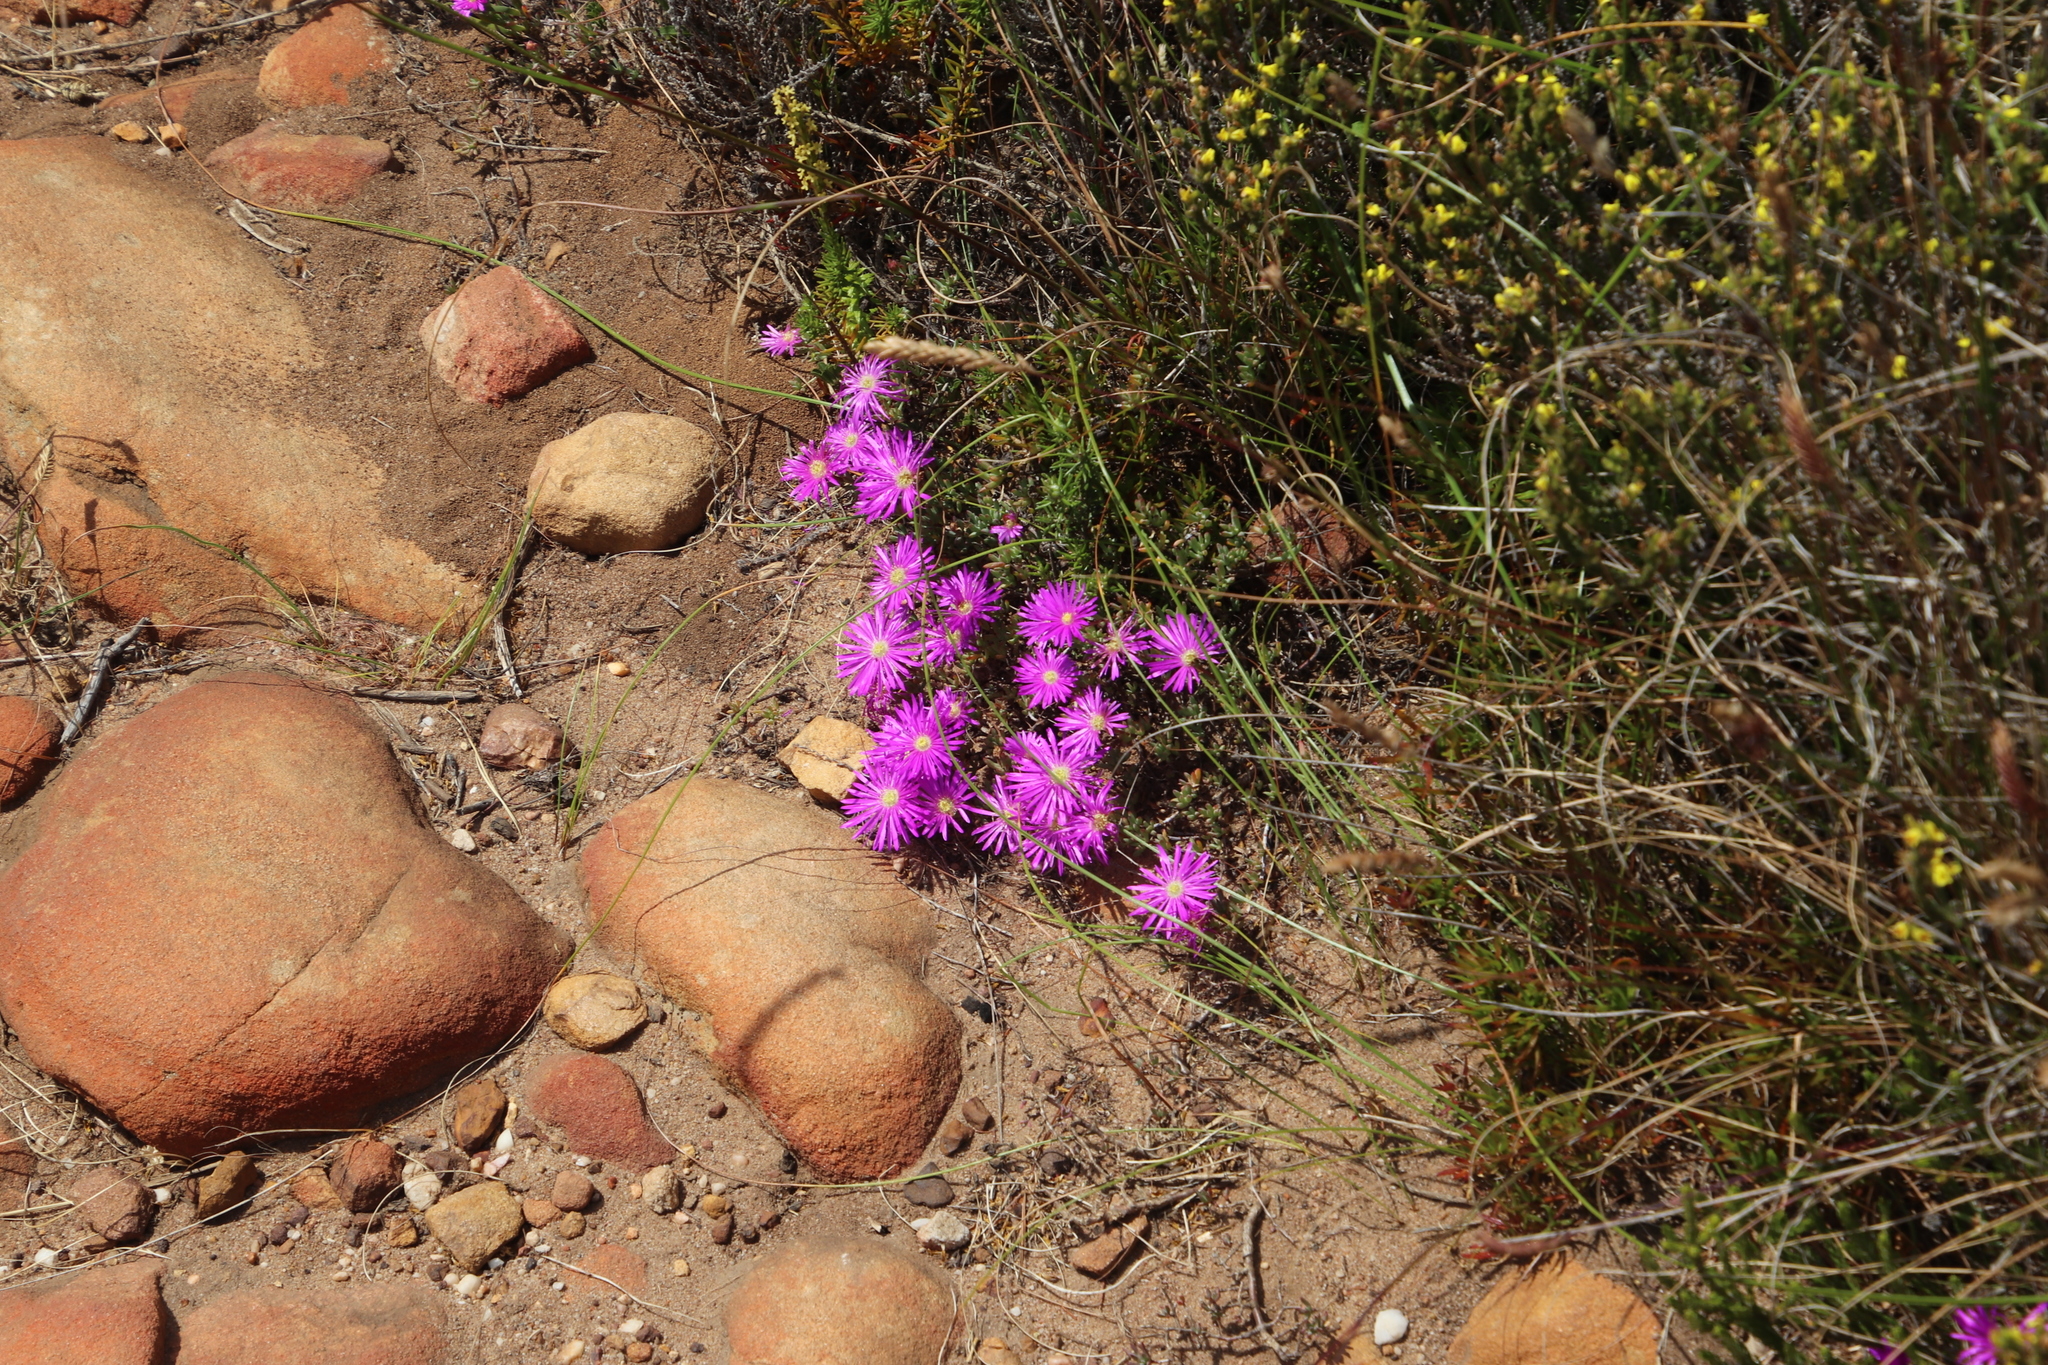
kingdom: Plantae
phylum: Tracheophyta
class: Magnoliopsida
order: Caryophyllales
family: Aizoaceae
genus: Lampranthus
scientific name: Lampranthus emarginatus
